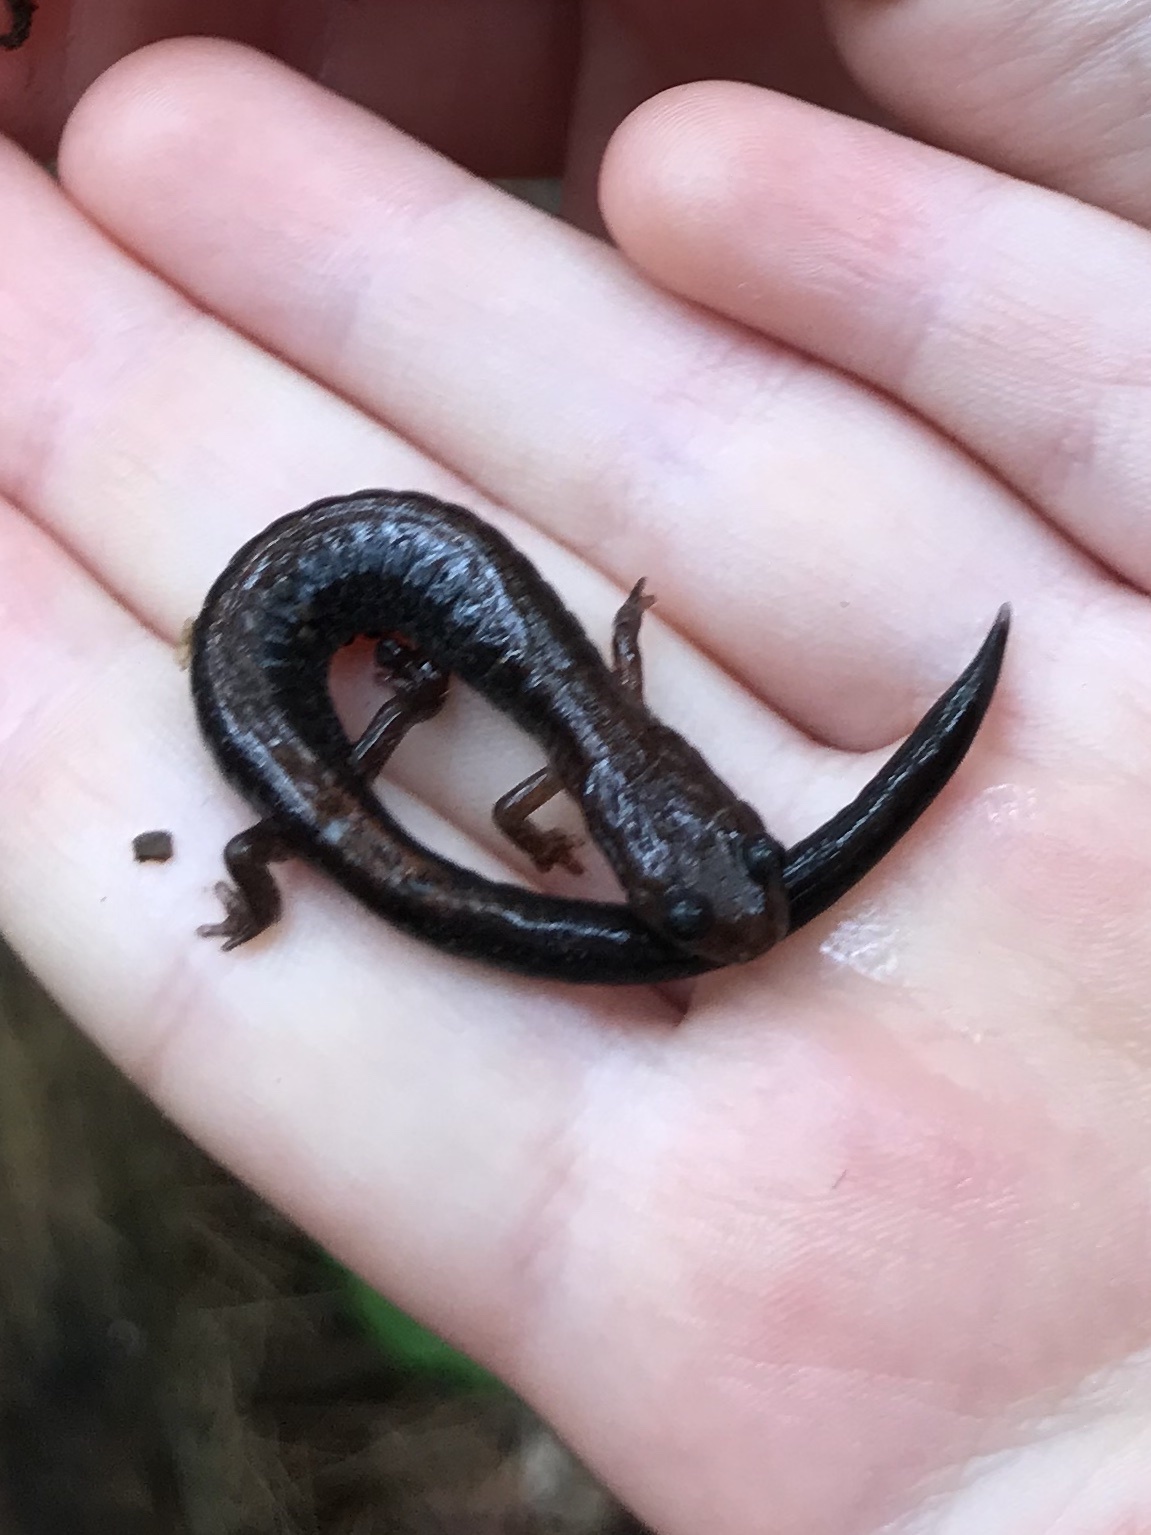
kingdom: Animalia
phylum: Chordata
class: Amphibia
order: Caudata
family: Plethodontidae
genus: Plethodon
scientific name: Plethodon cinereus
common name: Redback salamander
